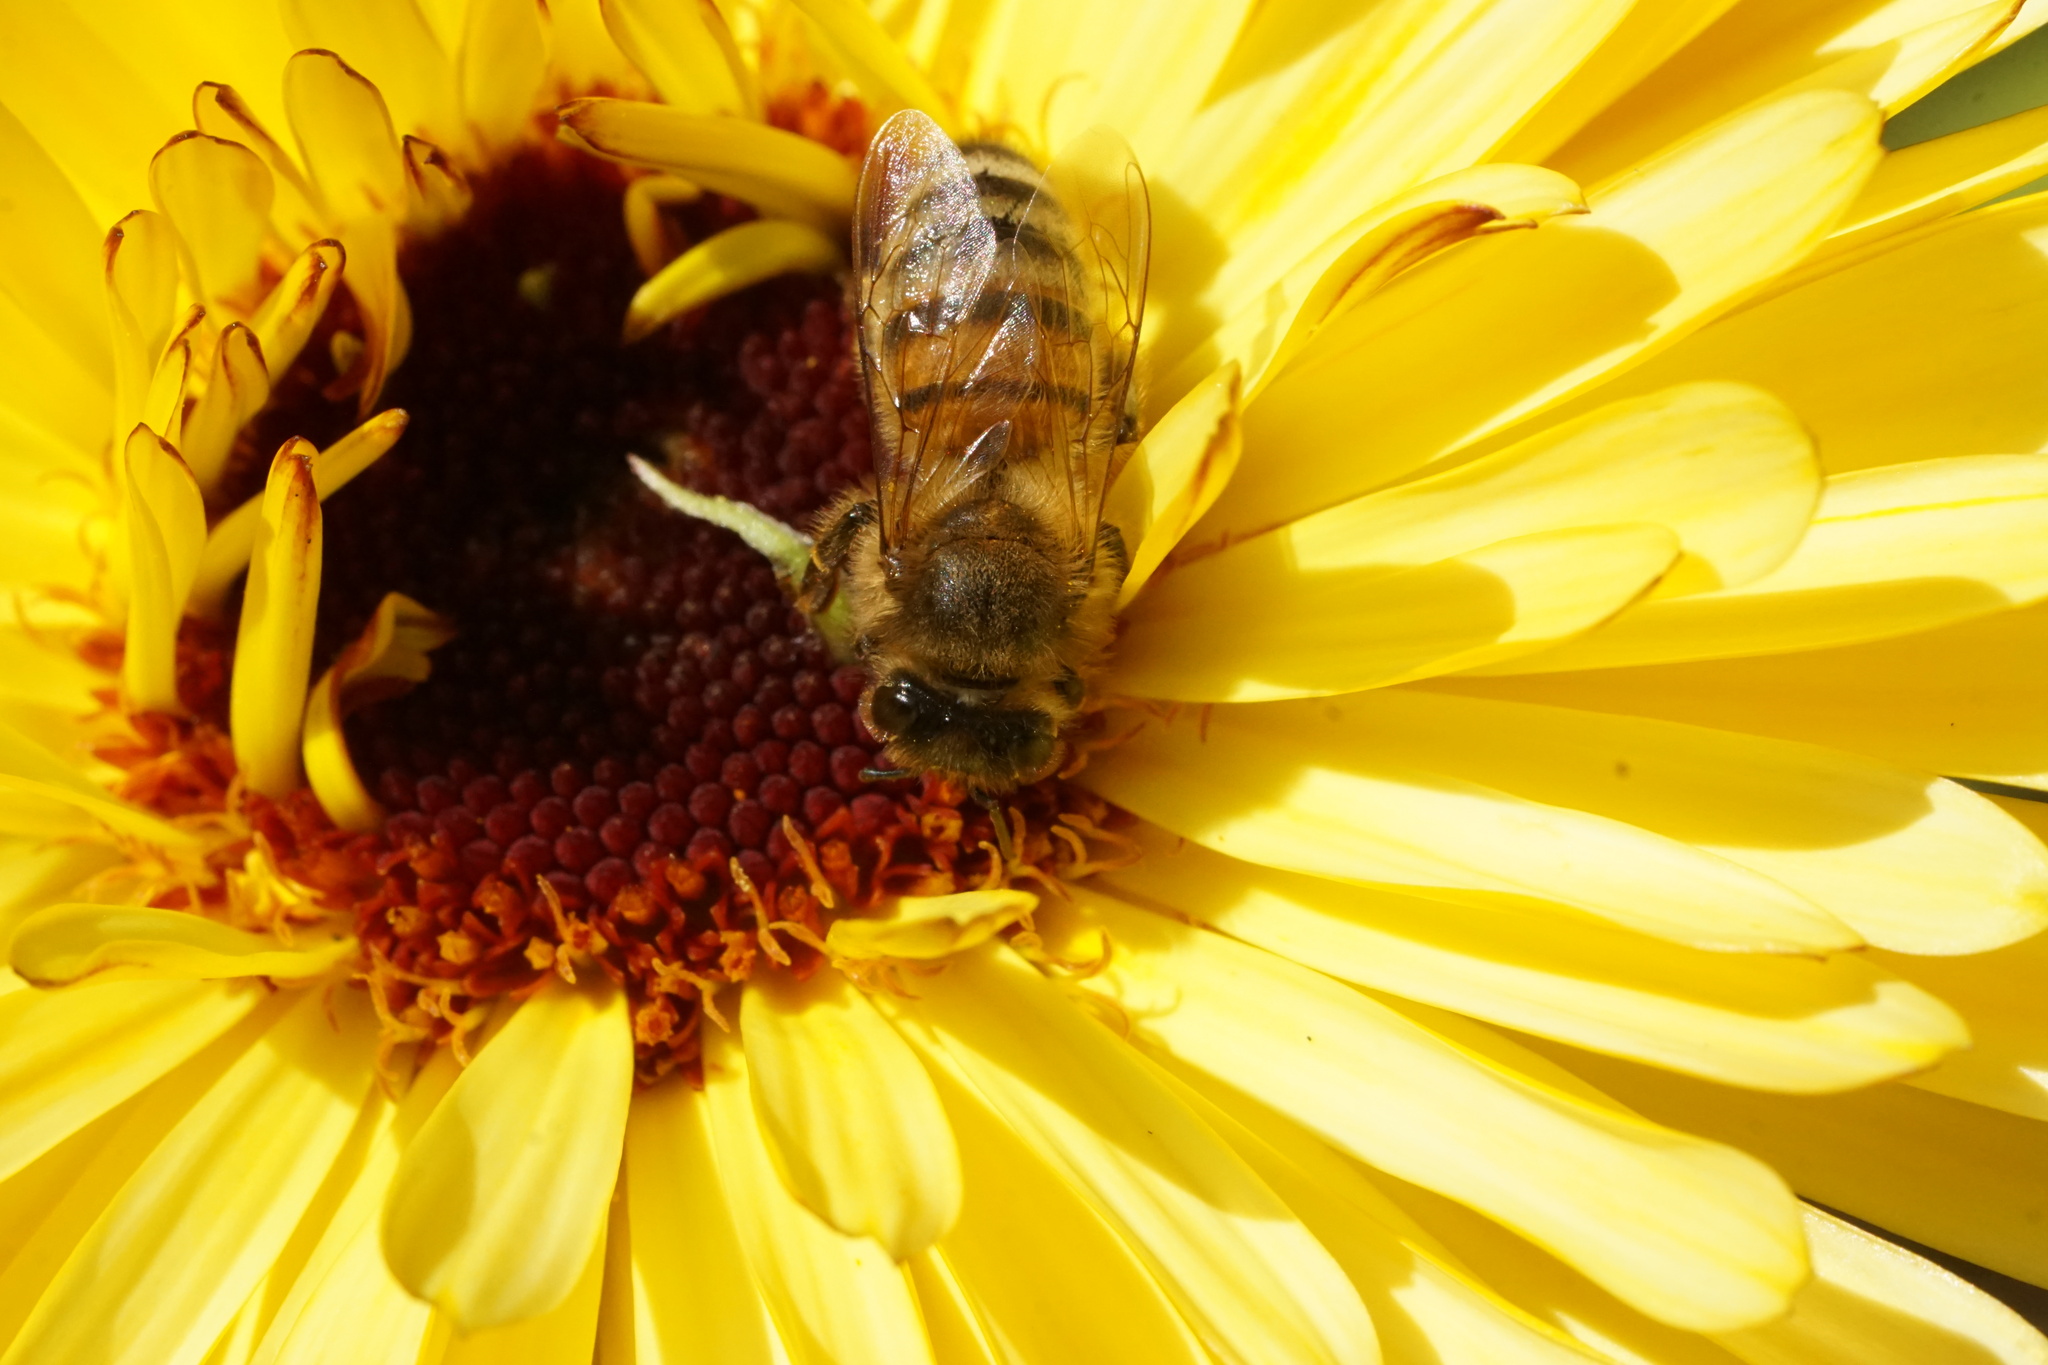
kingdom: Animalia
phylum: Arthropoda
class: Insecta
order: Hymenoptera
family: Apidae
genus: Apis
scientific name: Apis mellifera
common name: Honey bee
